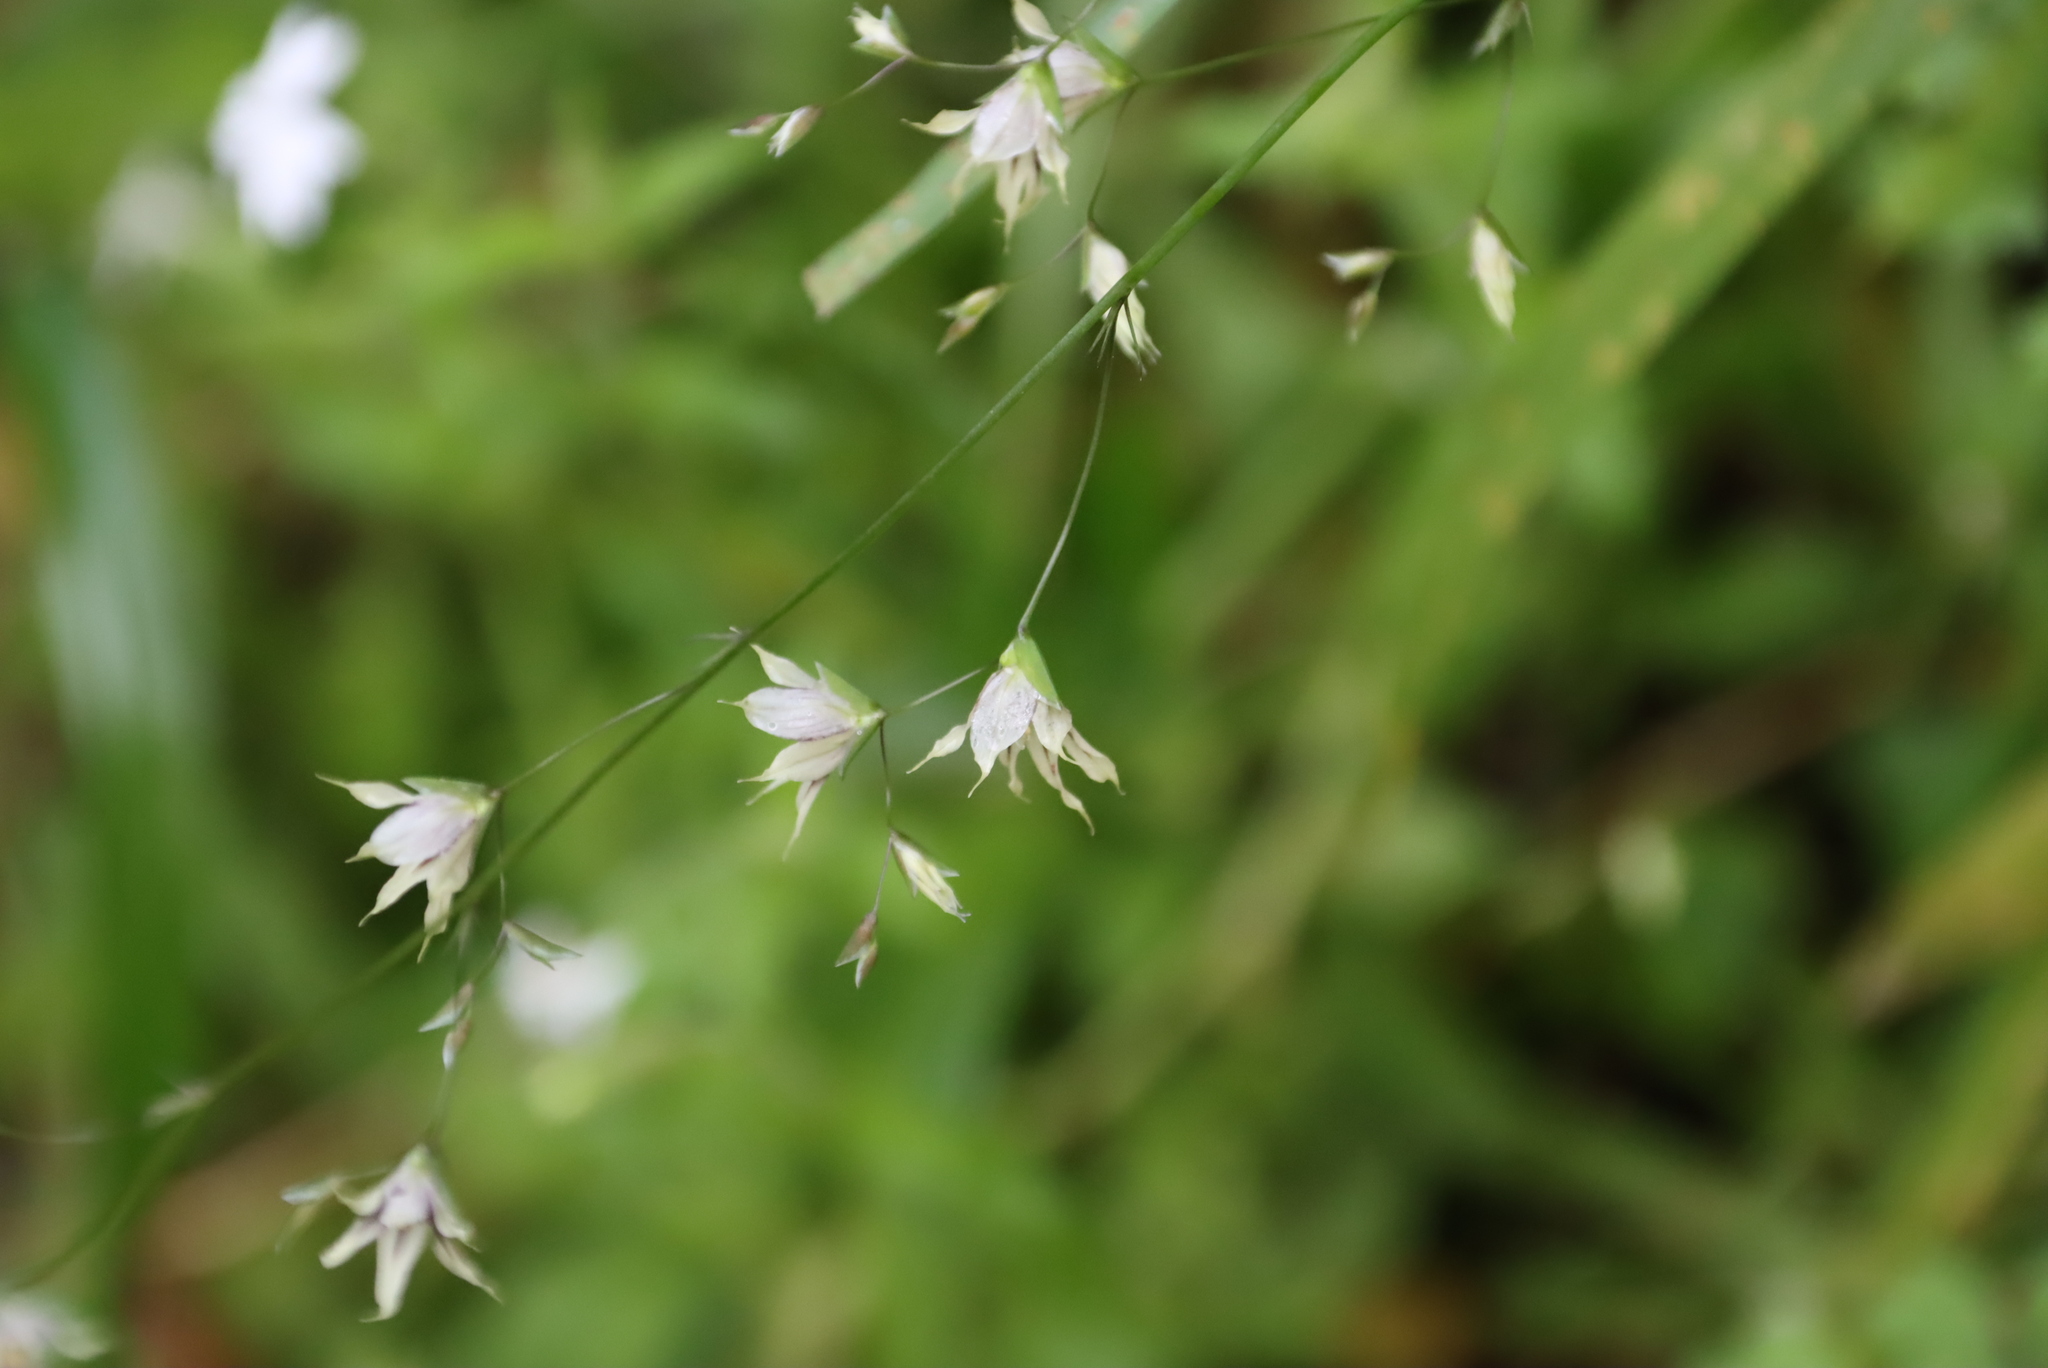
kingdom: Plantae
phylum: Tracheophyta
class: Liliopsida
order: Asparagales
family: Iridaceae
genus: Melasphaerula
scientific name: Melasphaerula graminea
